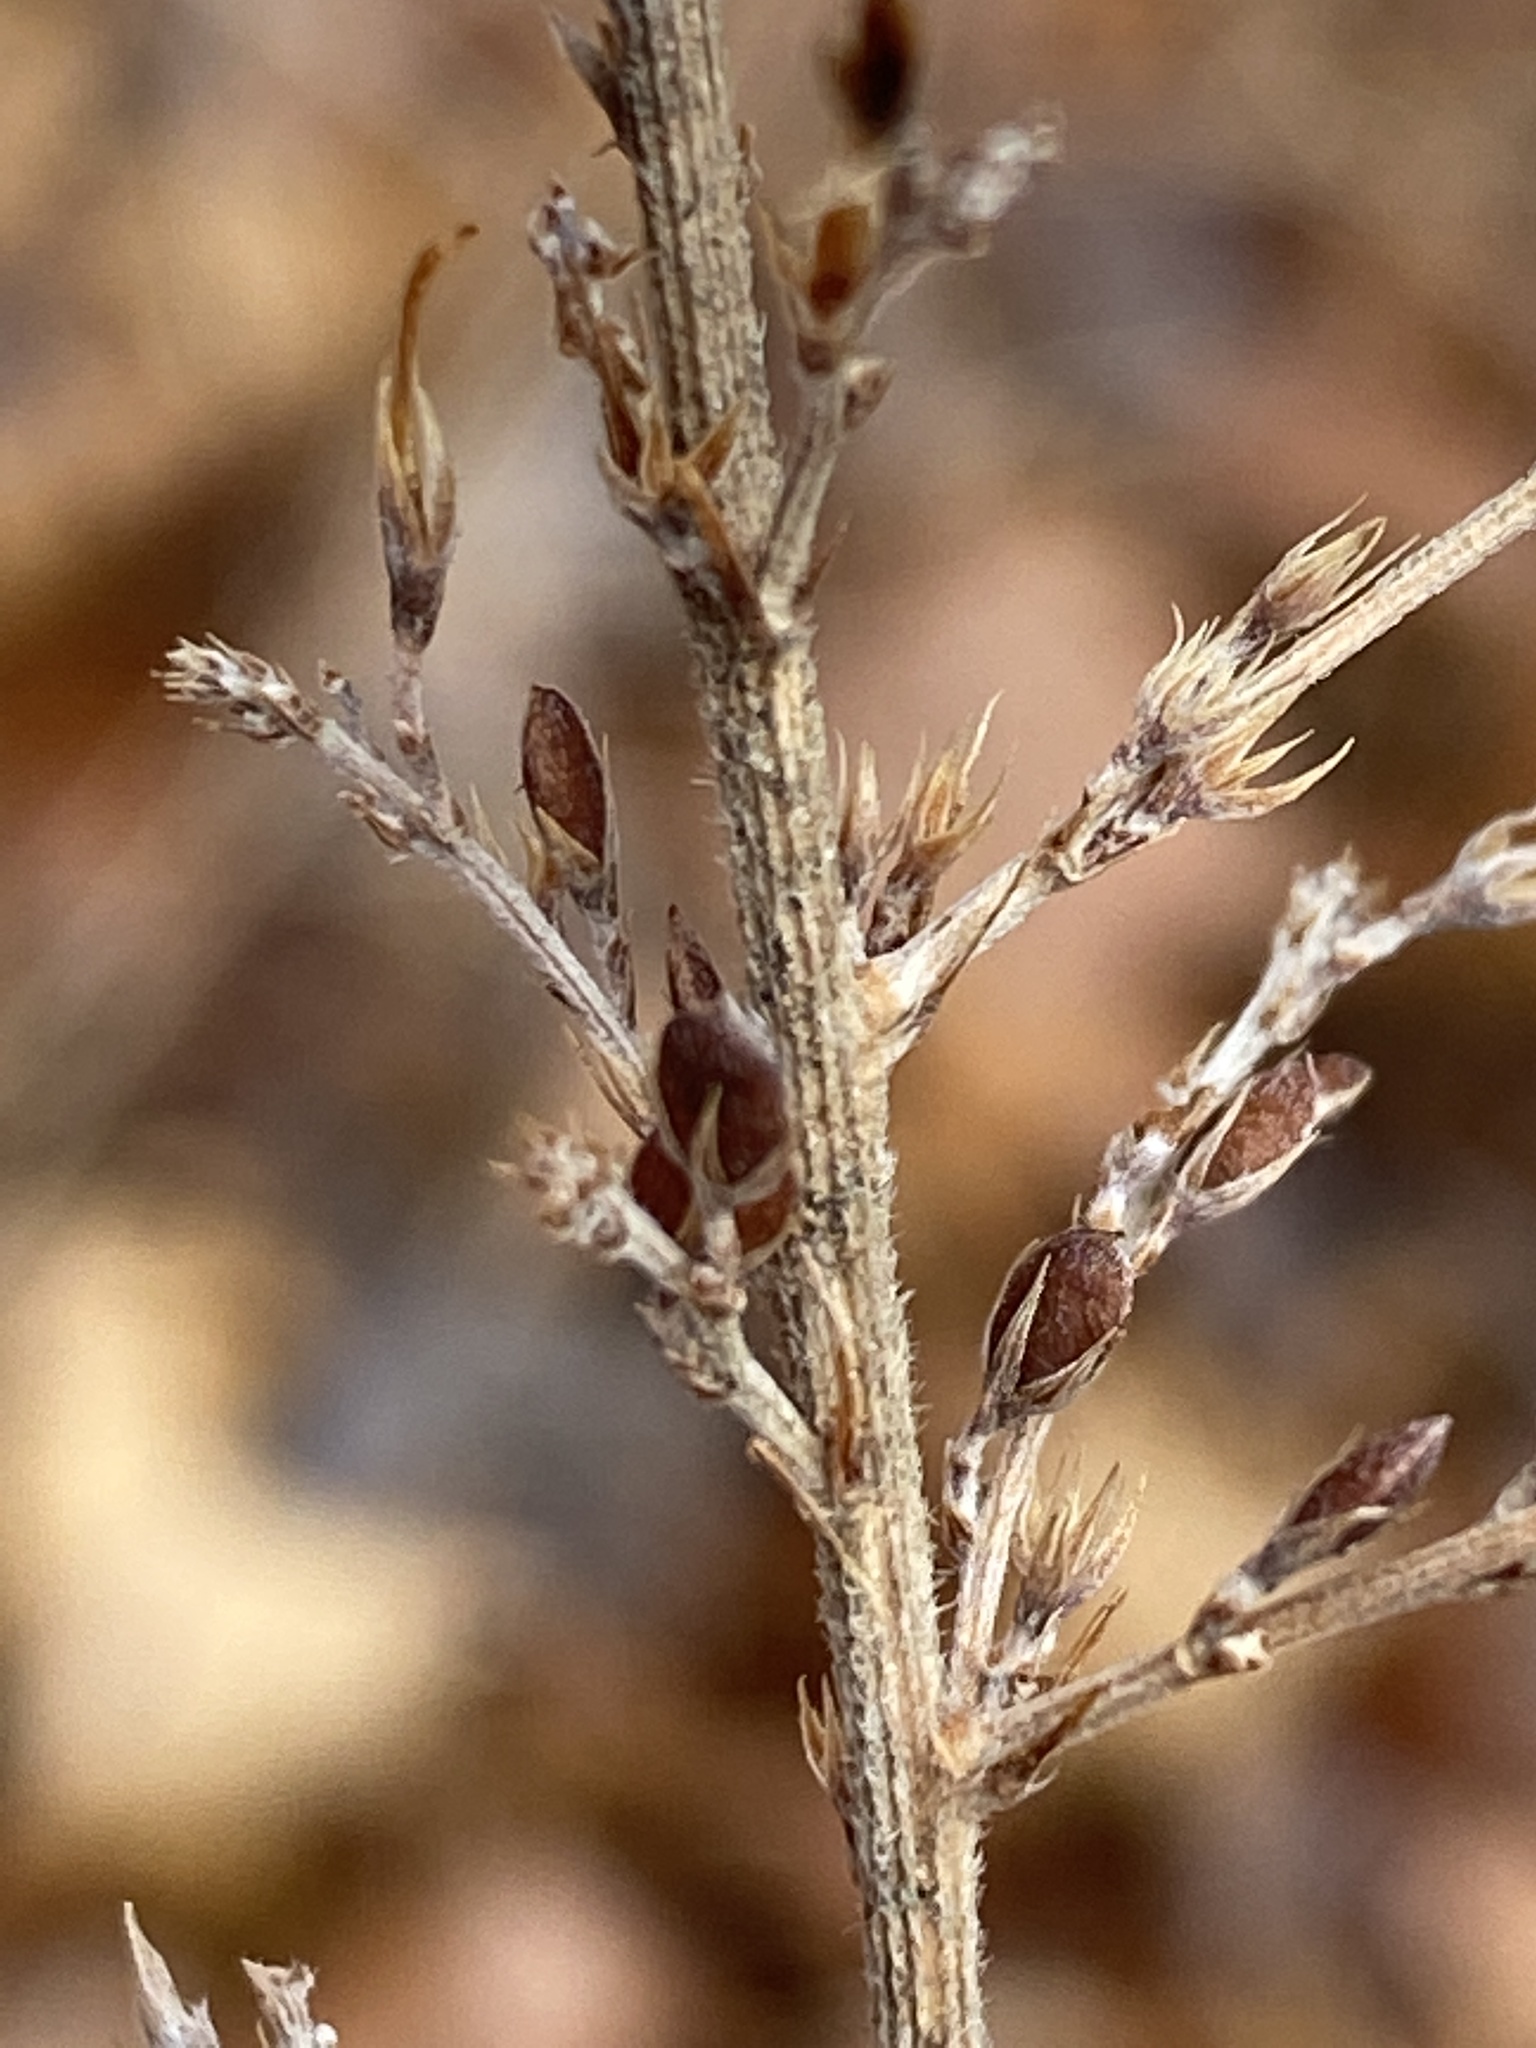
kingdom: Plantae
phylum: Tracheophyta
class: Magnoliopsida
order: Fabales
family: Fabaceae
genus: Lespedeza
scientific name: Lespedeza cuneata
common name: Chinese bush-clover
